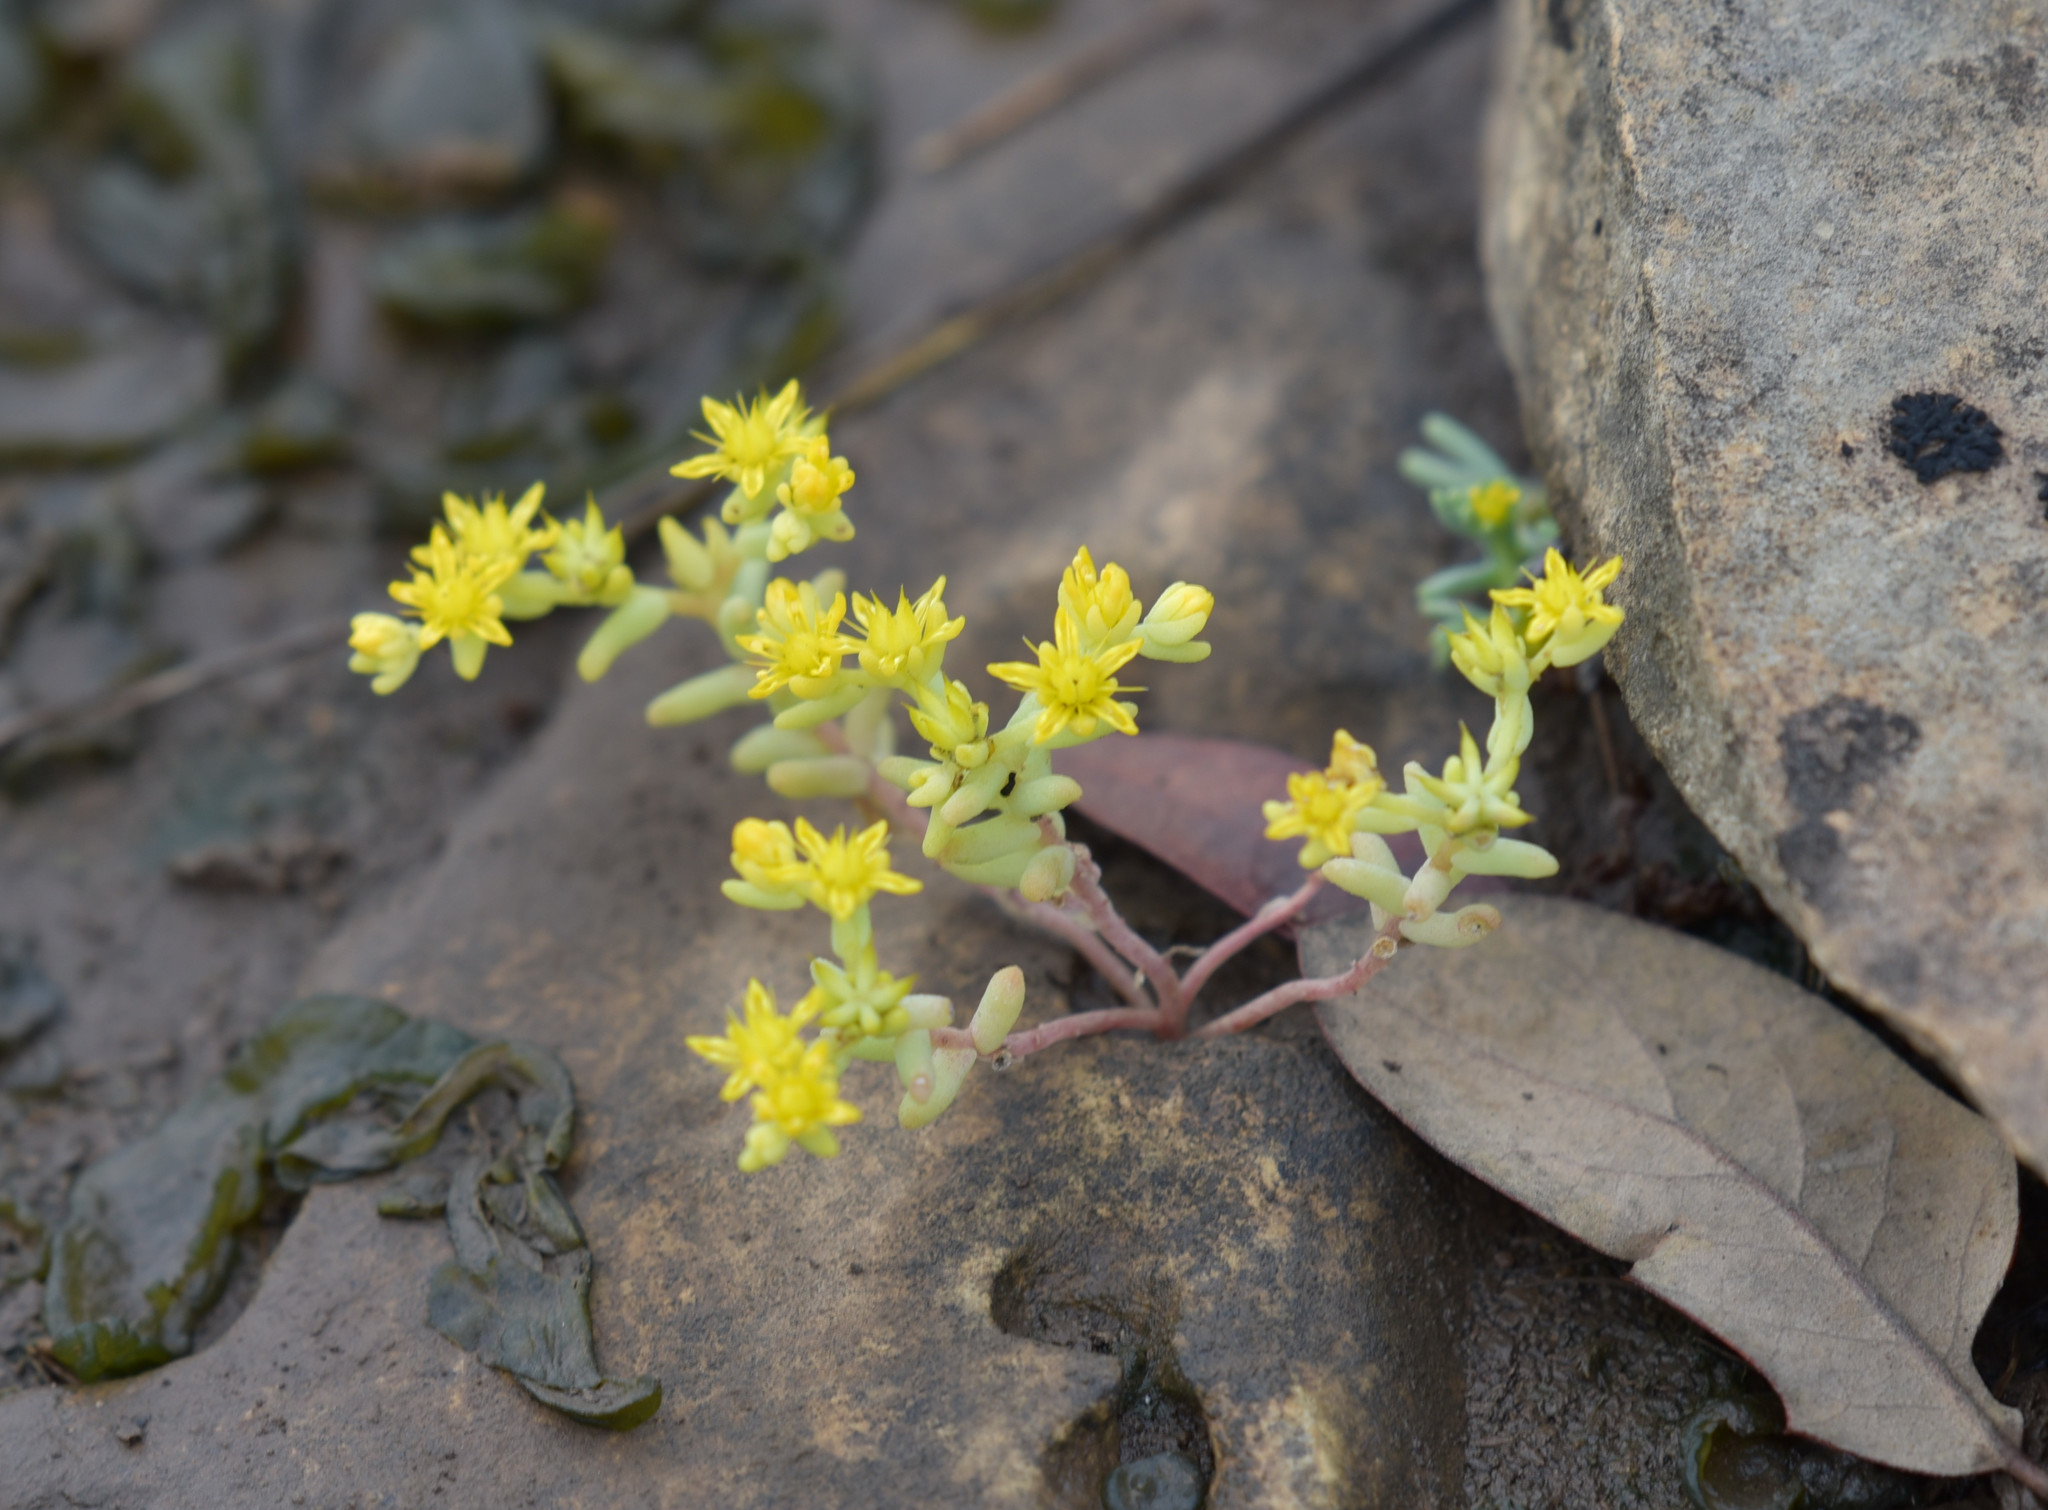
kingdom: Plantae
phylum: Tracheophyta
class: Magnoliopsida
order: Saxifragales
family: Crassulaceae
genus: Sedum
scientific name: Sedum nuttallii
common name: Yellow stonecrop
